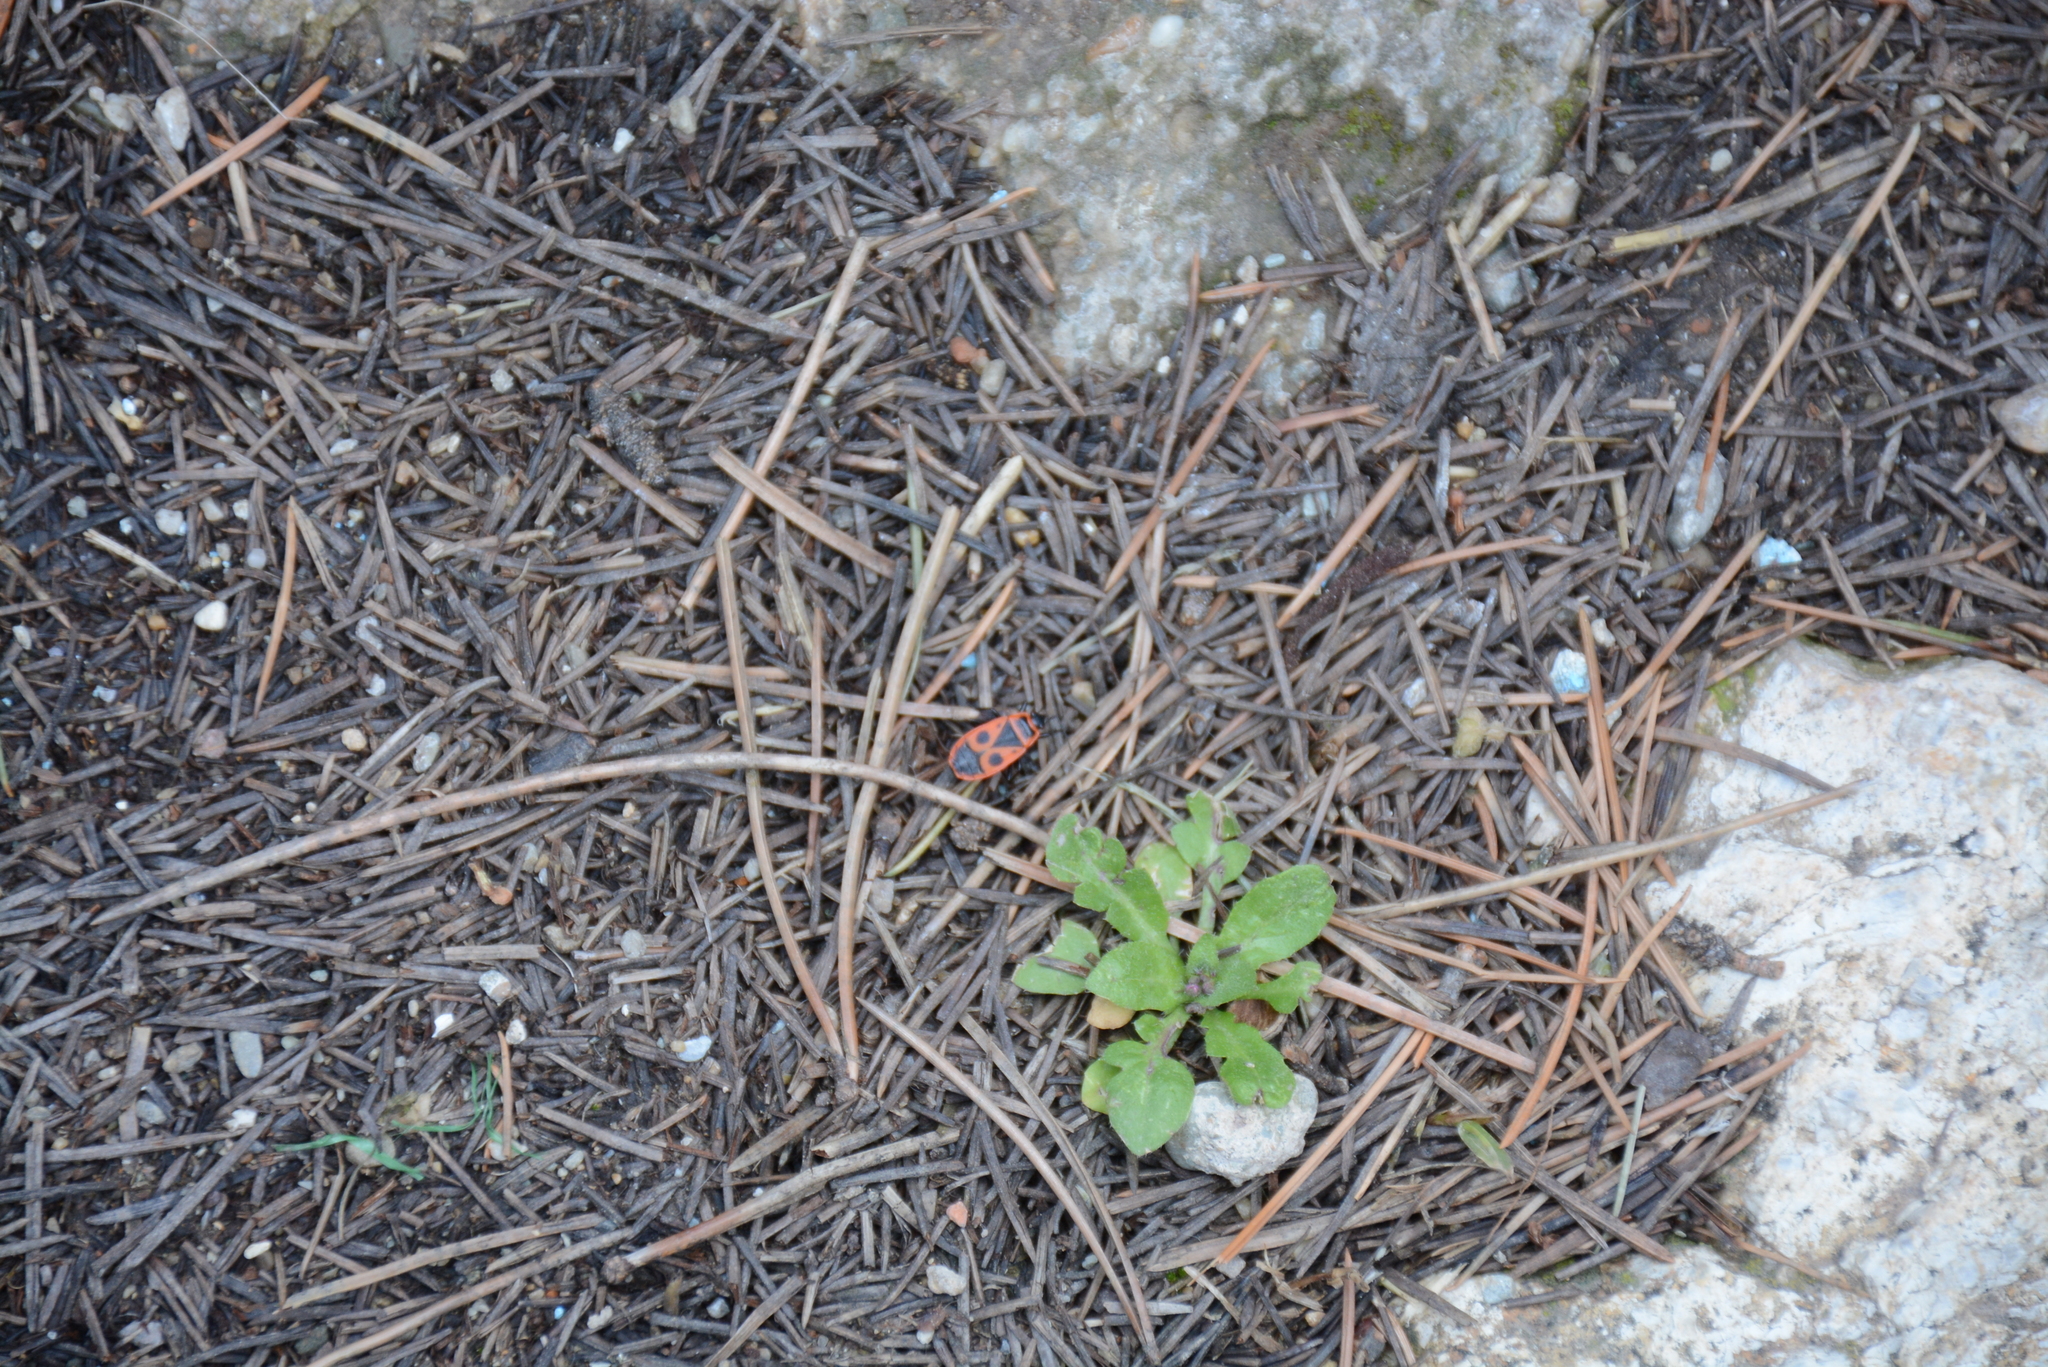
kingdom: Animalia
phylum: Arthropoda
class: Insecta
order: Hemiptera
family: Pyrrhocoridae
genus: Pyrrhocoris
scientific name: Pyrrhocoris apterus
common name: Firebug
